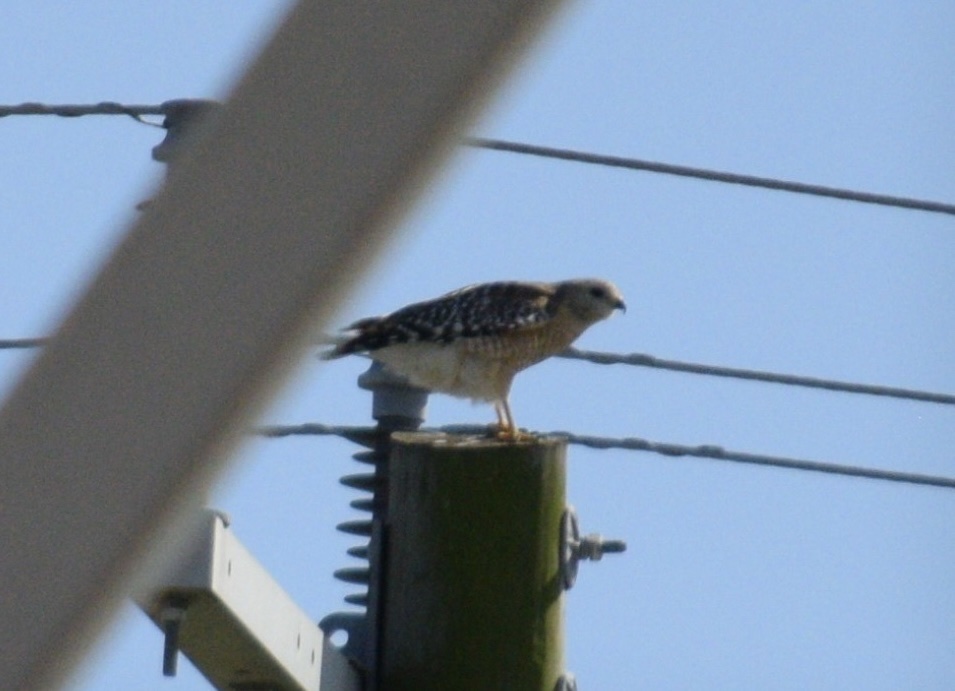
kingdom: Animalia
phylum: Chordata
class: Aves
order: Accipitriformes
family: Accipitridae
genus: Buteo
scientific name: Buteo lineatus
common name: Red-shouldered hawk
